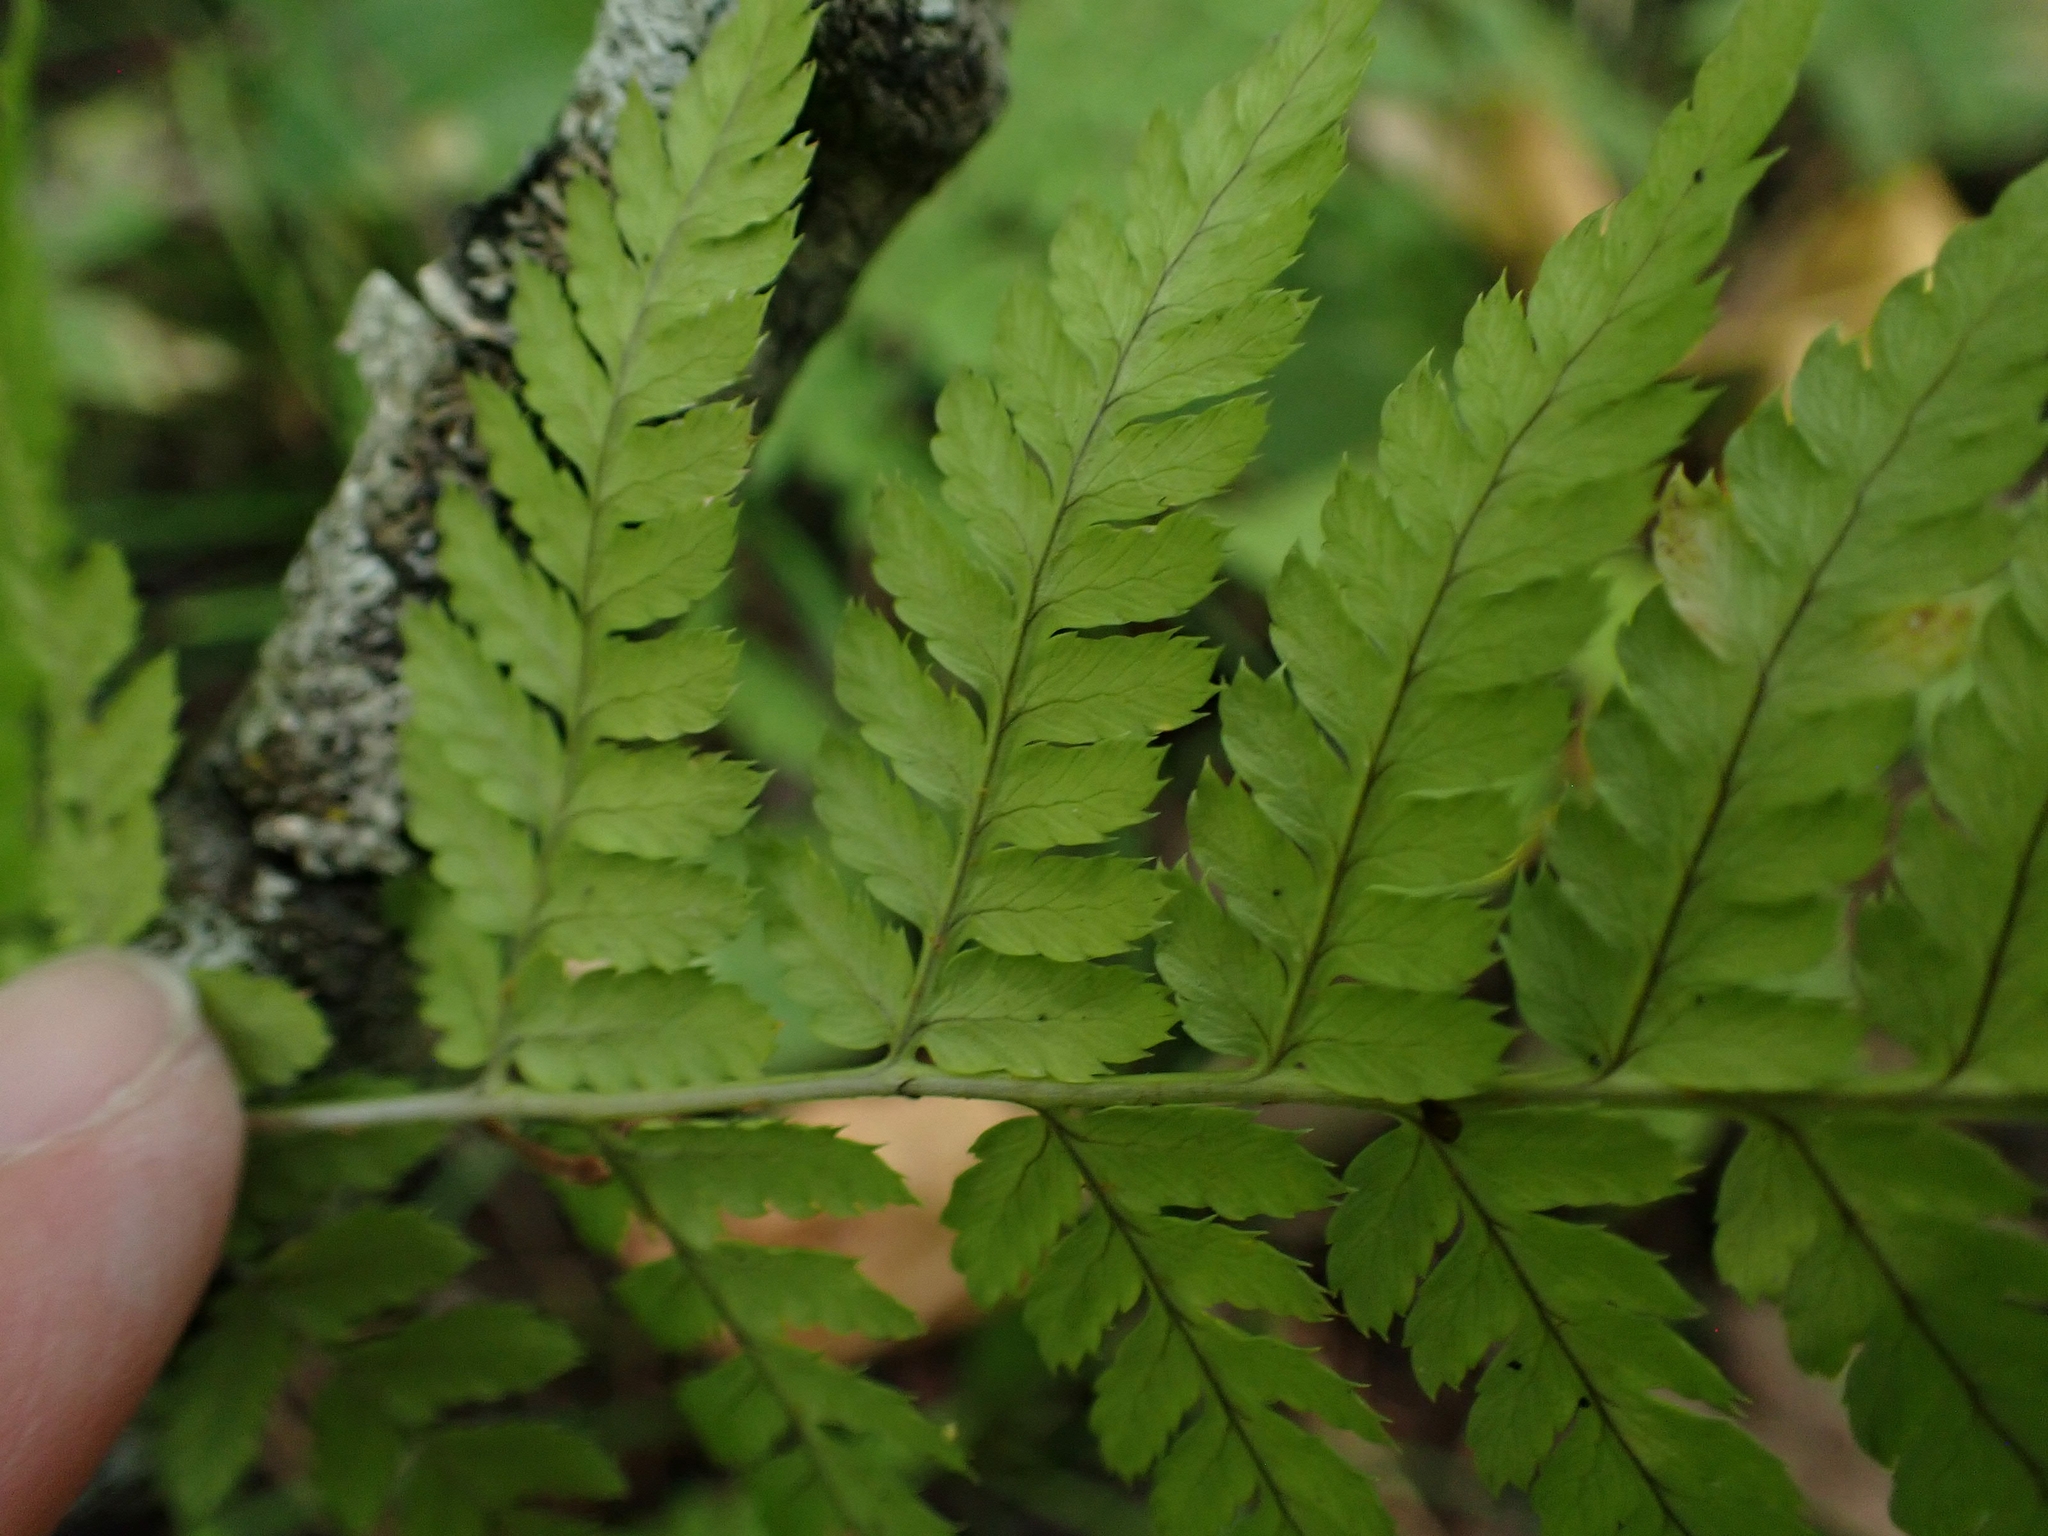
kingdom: Plantae
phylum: Tracheophyta
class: Polypodiopsida
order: Polypodiales
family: Dryopteridaceae
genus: Dryopteris
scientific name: Dryopteris carthusiana
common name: Narrow buckler-fern
